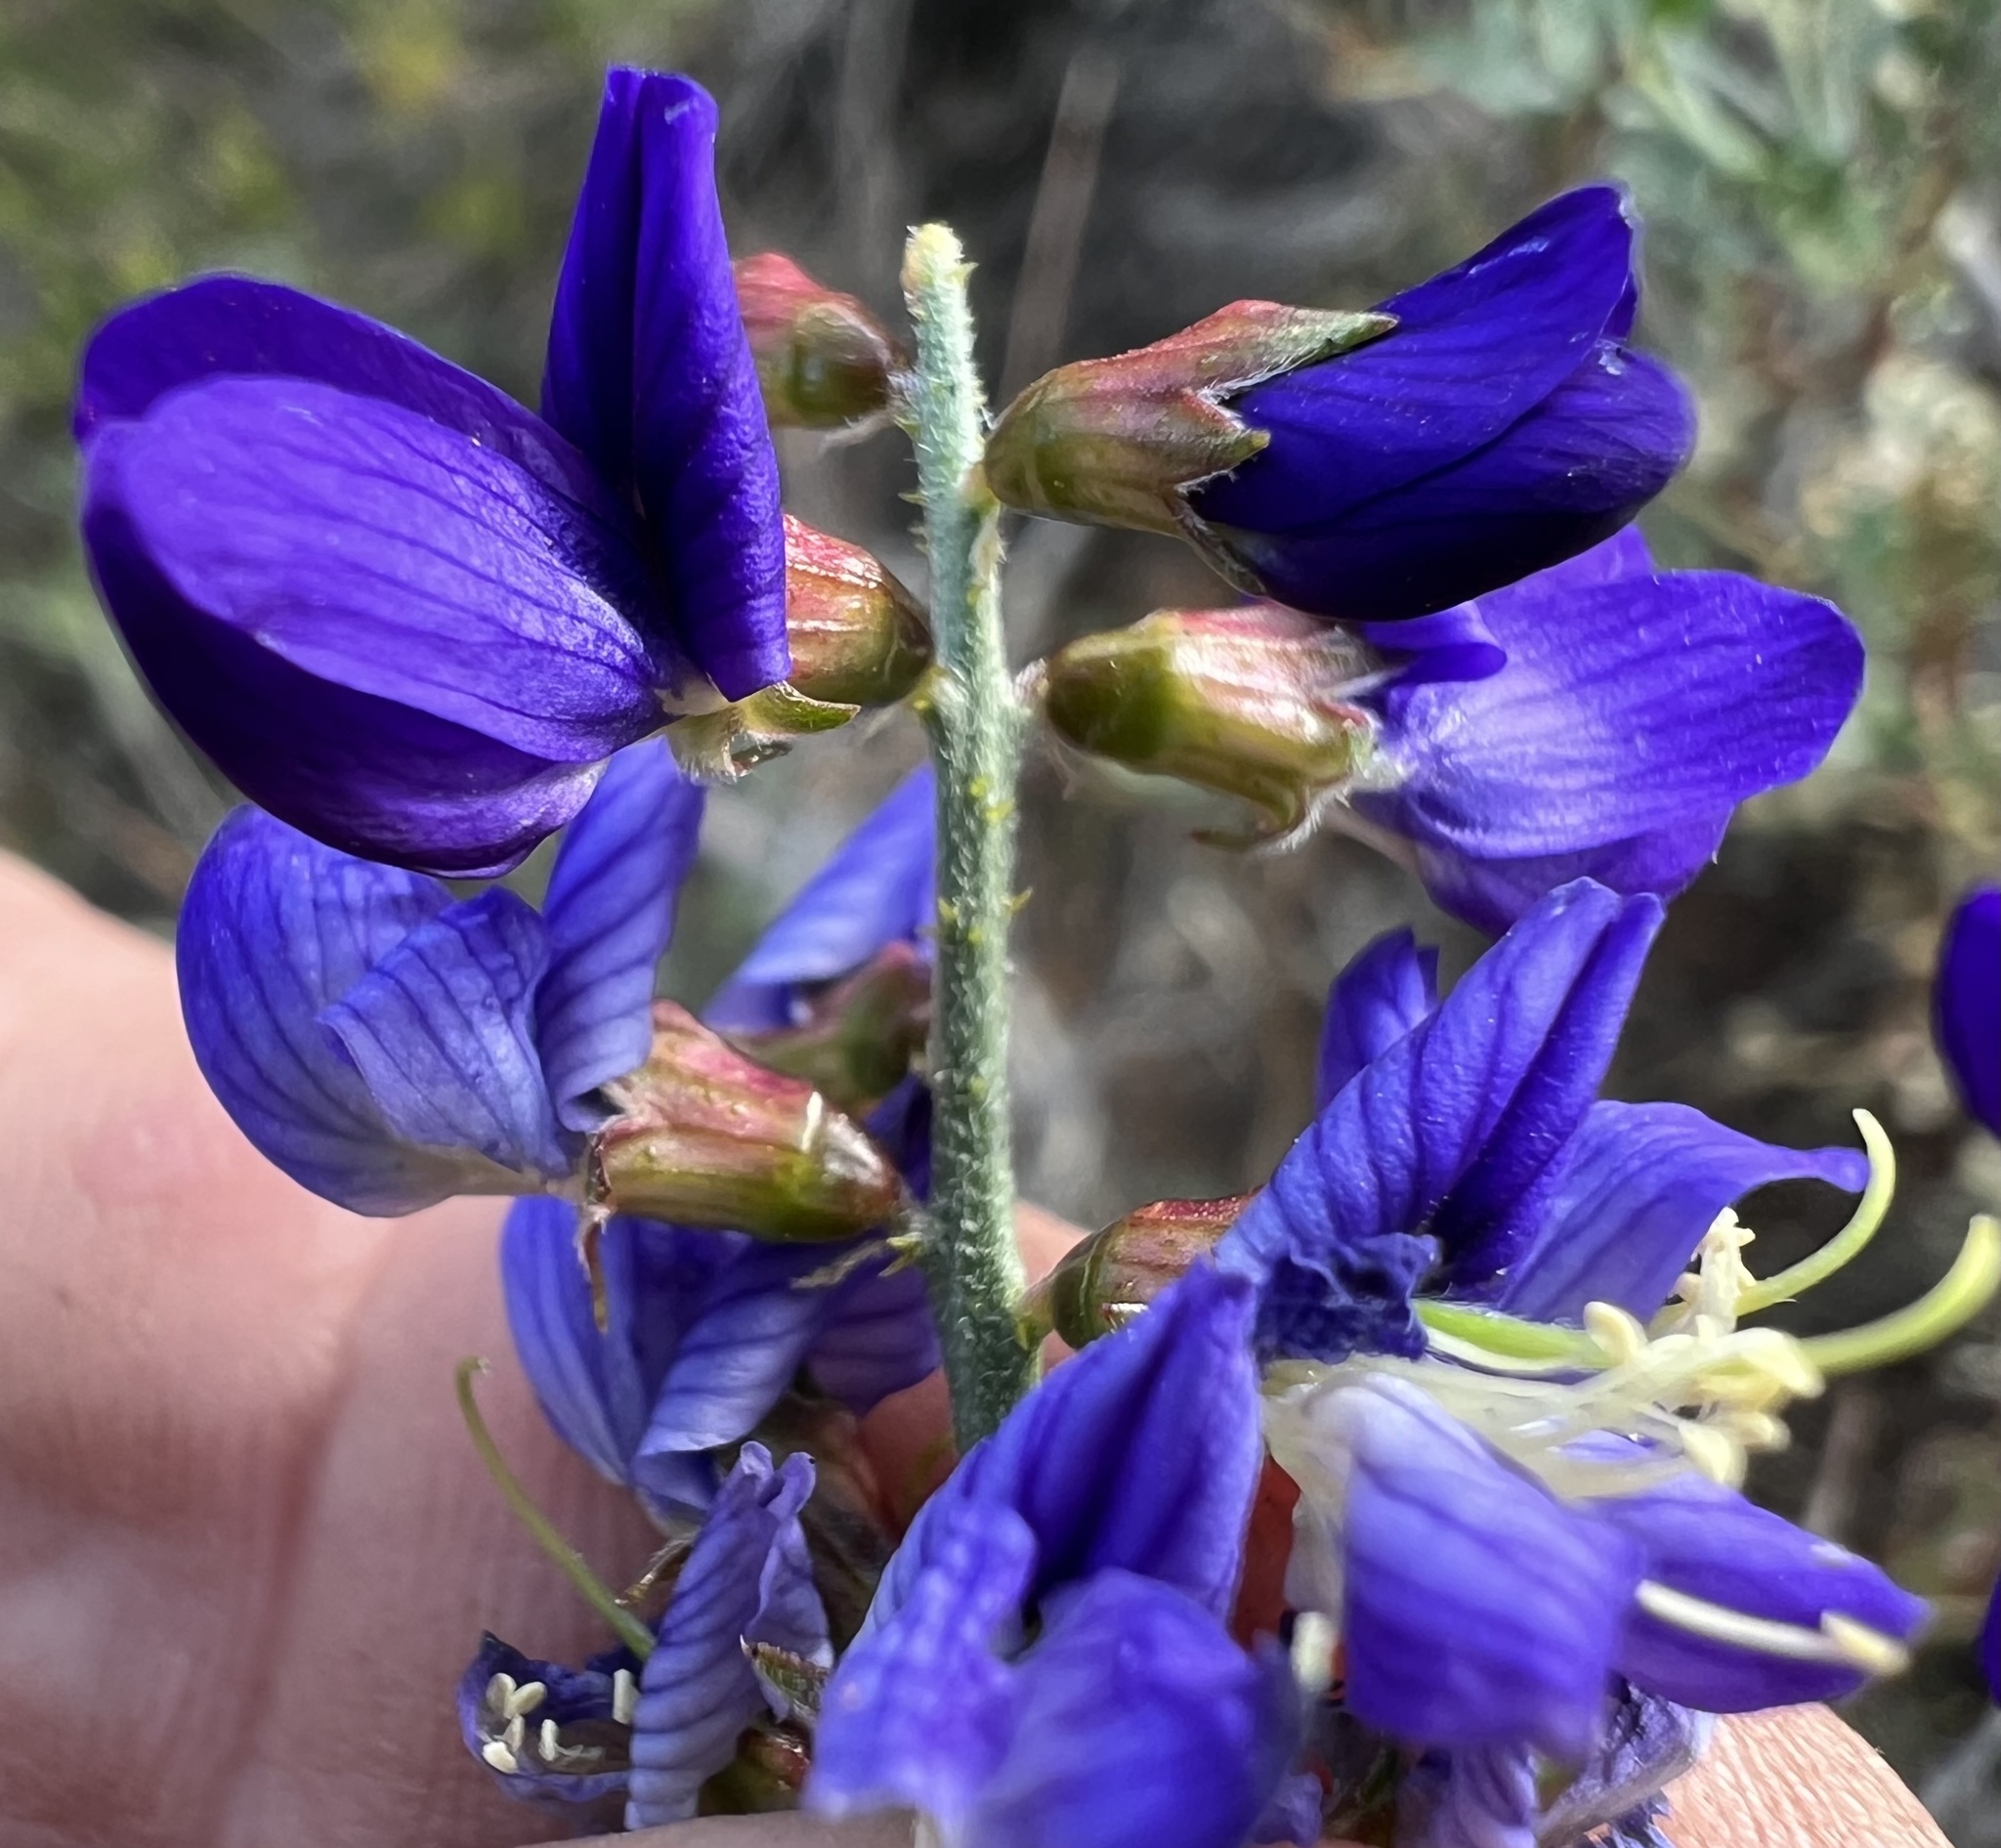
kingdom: Plantae
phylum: Tracheophyta
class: Magnoliopsida
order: Fabales
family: Fabaceae
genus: Psorothamnus
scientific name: Psorothamnus arborescens
